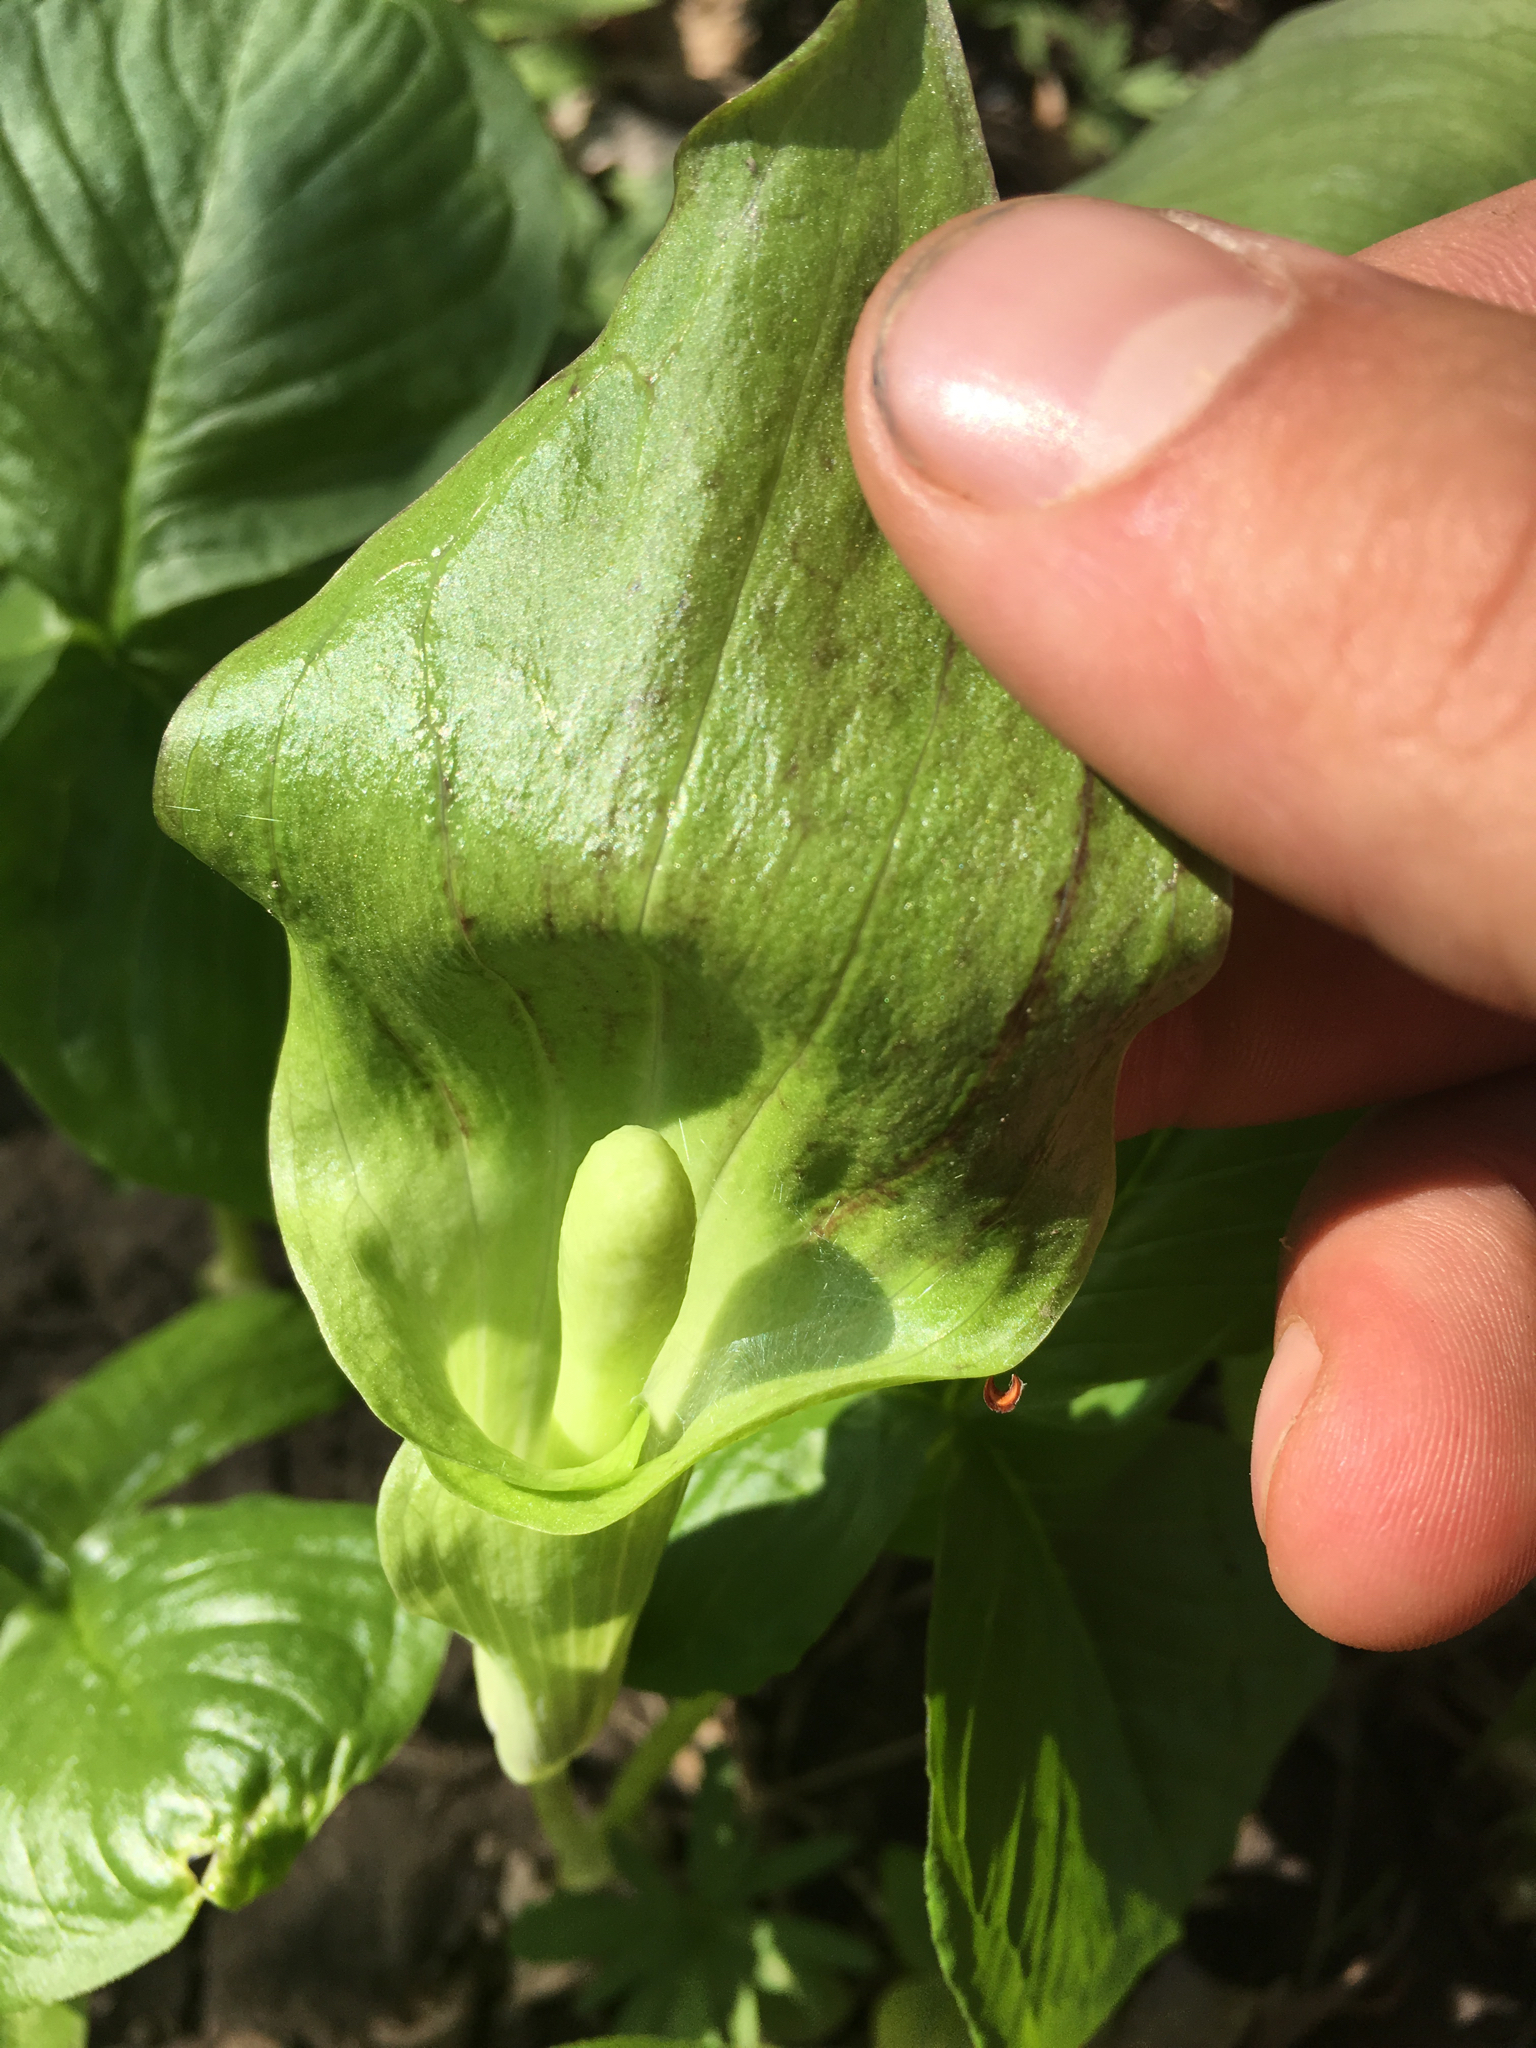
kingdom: Plantae
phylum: Tracheophyta
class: Liliopsida
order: Alismatales
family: Araceae
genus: Arisaema
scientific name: Arisaema triphyllum
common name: Jack-in-the-pulpit
